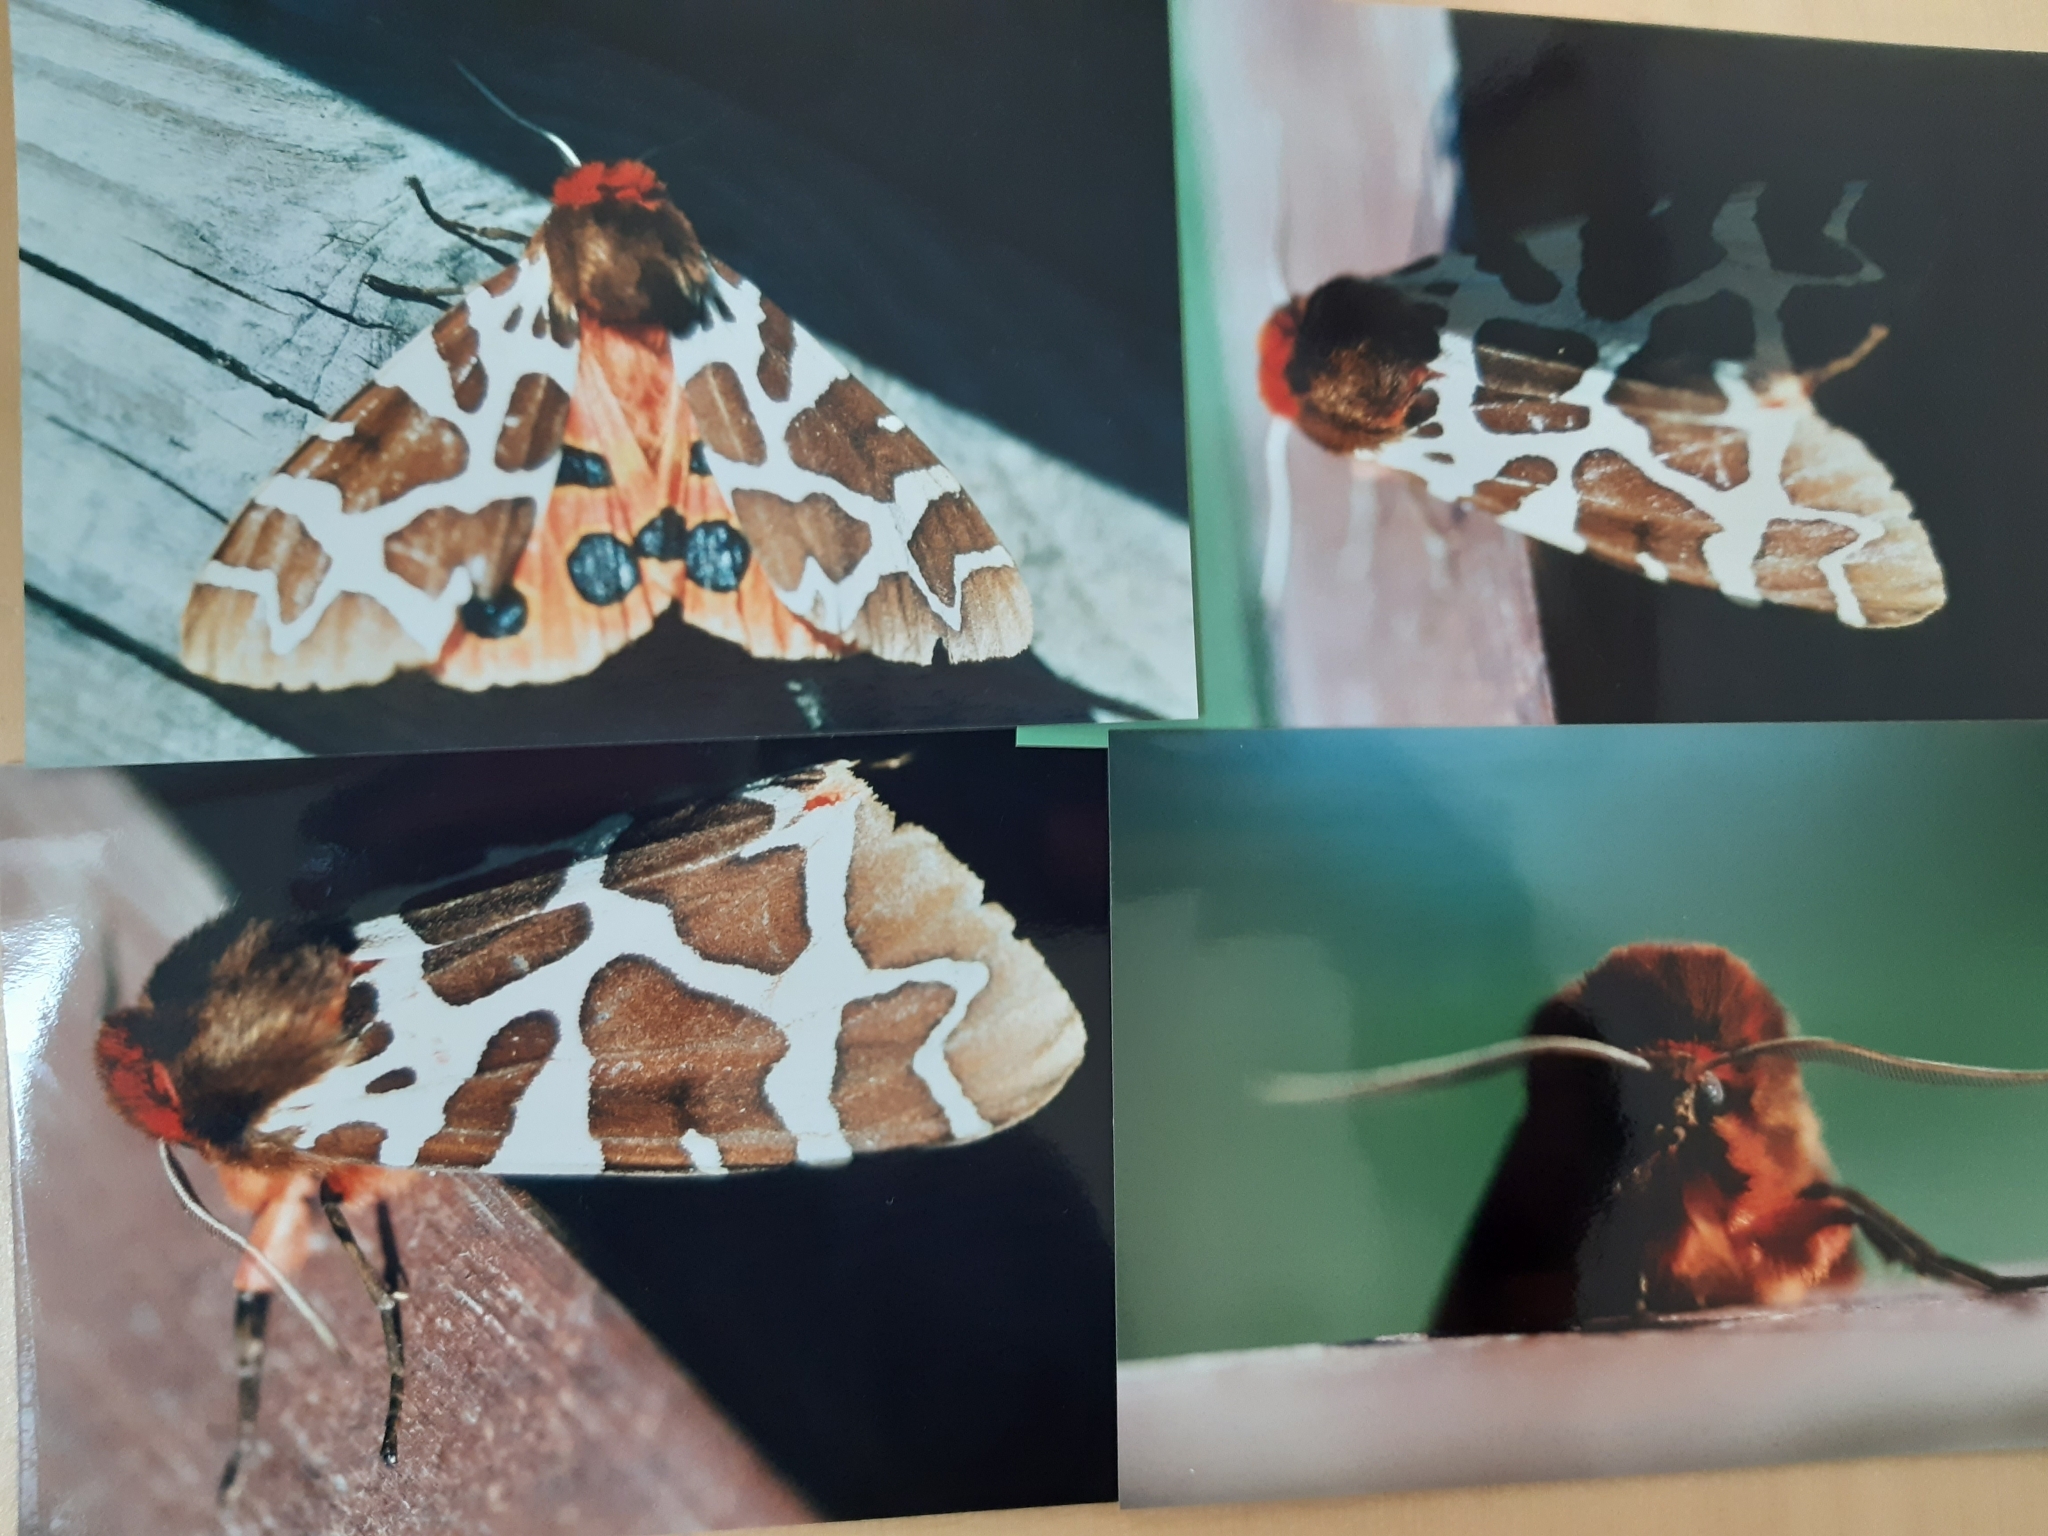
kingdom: Animalia
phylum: Arthropoda
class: Insecta
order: Lepidoptera
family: Erebidae
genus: Arctia
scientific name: Arctia caja
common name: Garden tiger
